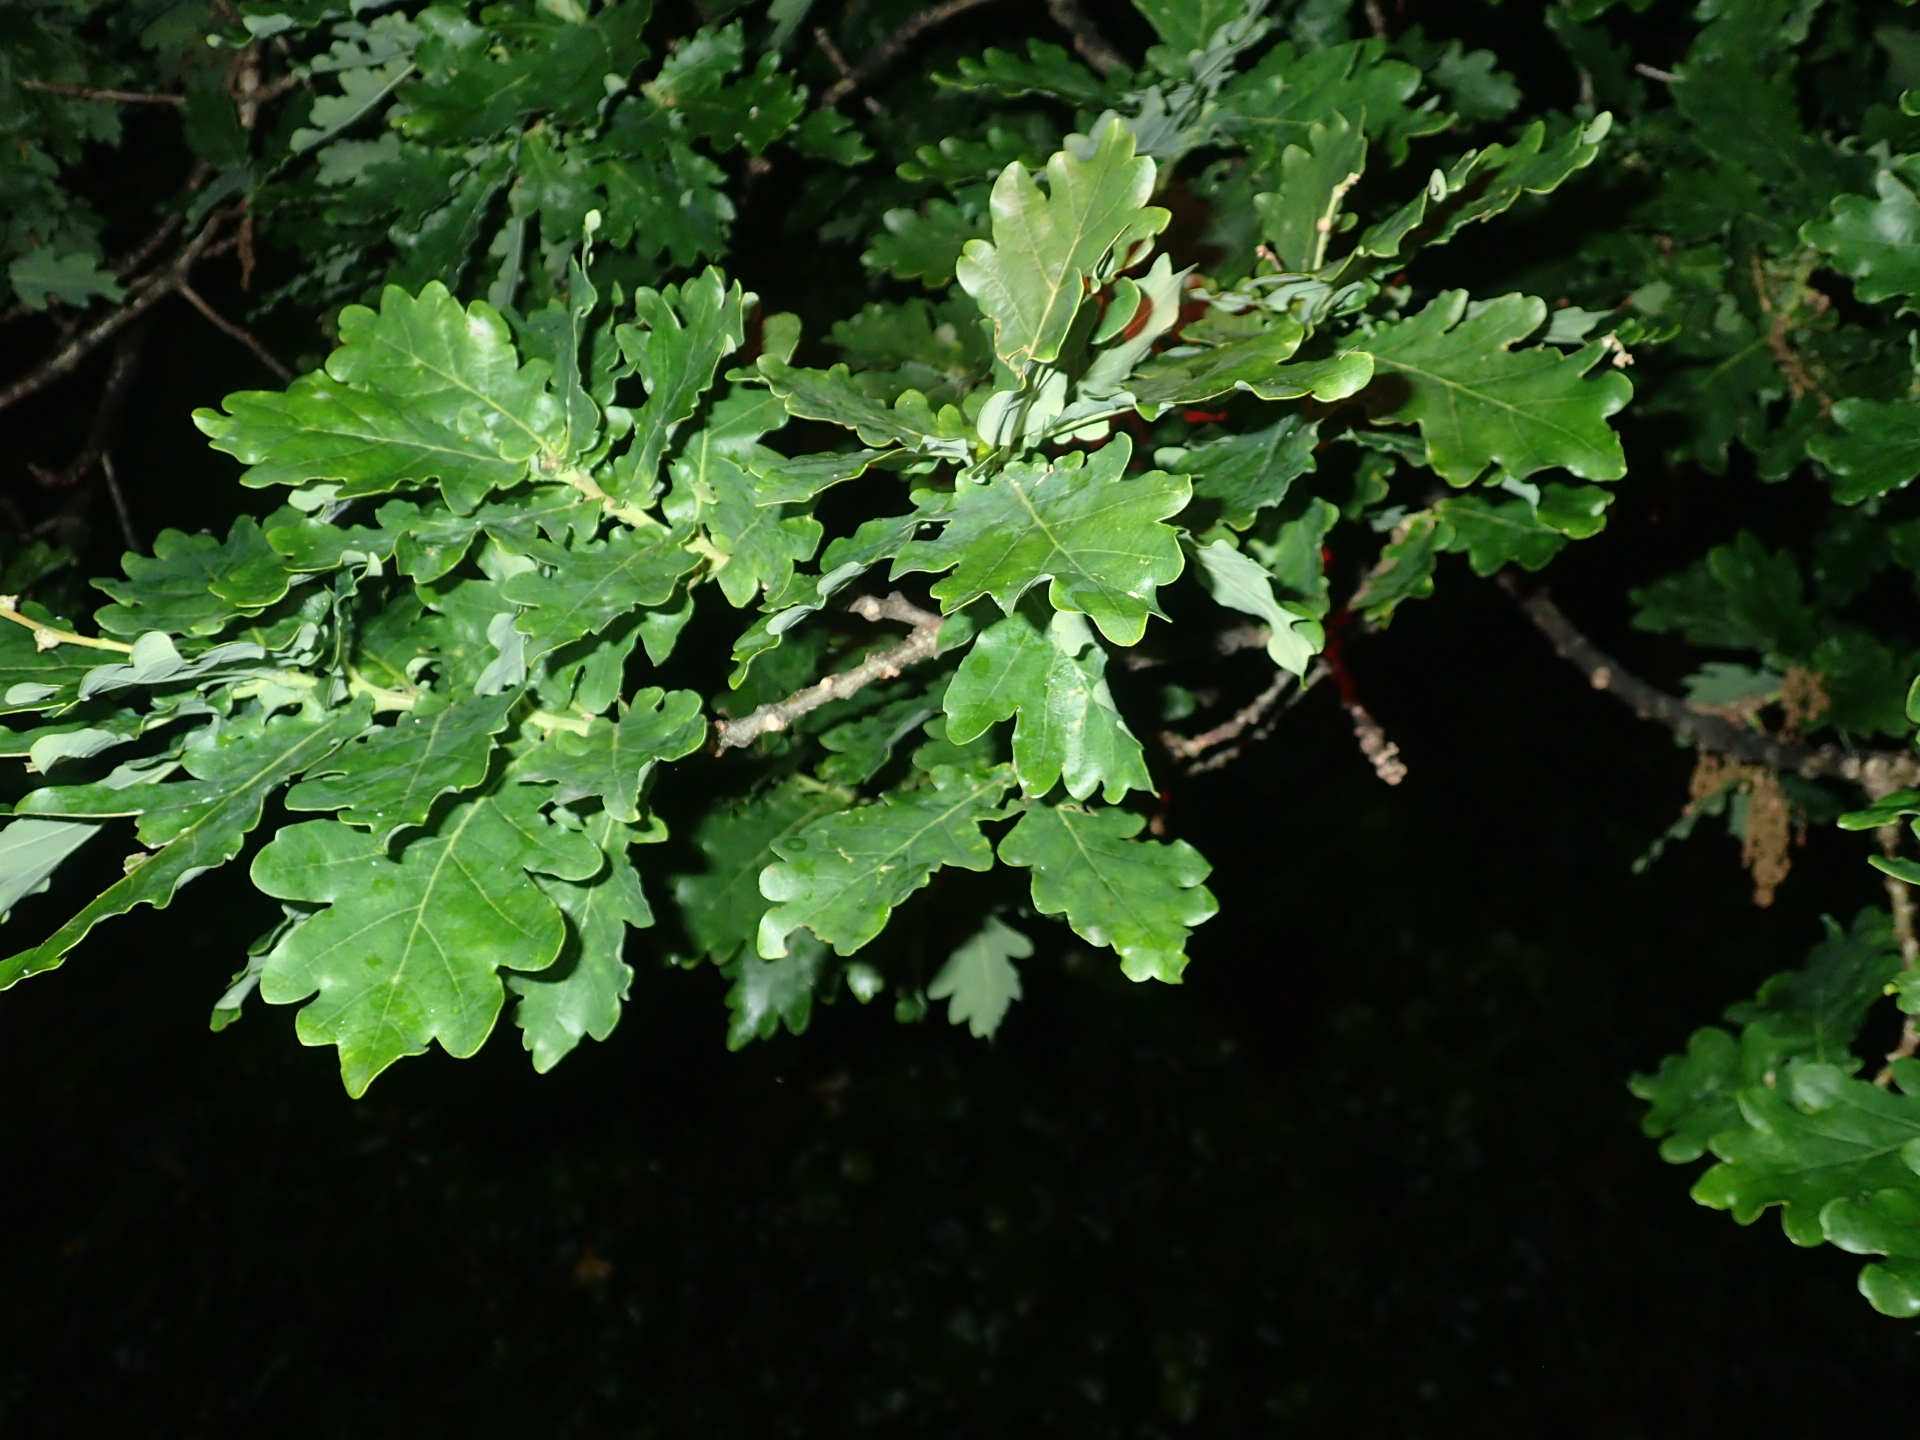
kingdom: Plantae
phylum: Tracheophyta
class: Magnoliopsida
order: Fagales
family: Fagaceae
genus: Quercus
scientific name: Quercus robur
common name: Pedunculate oak
